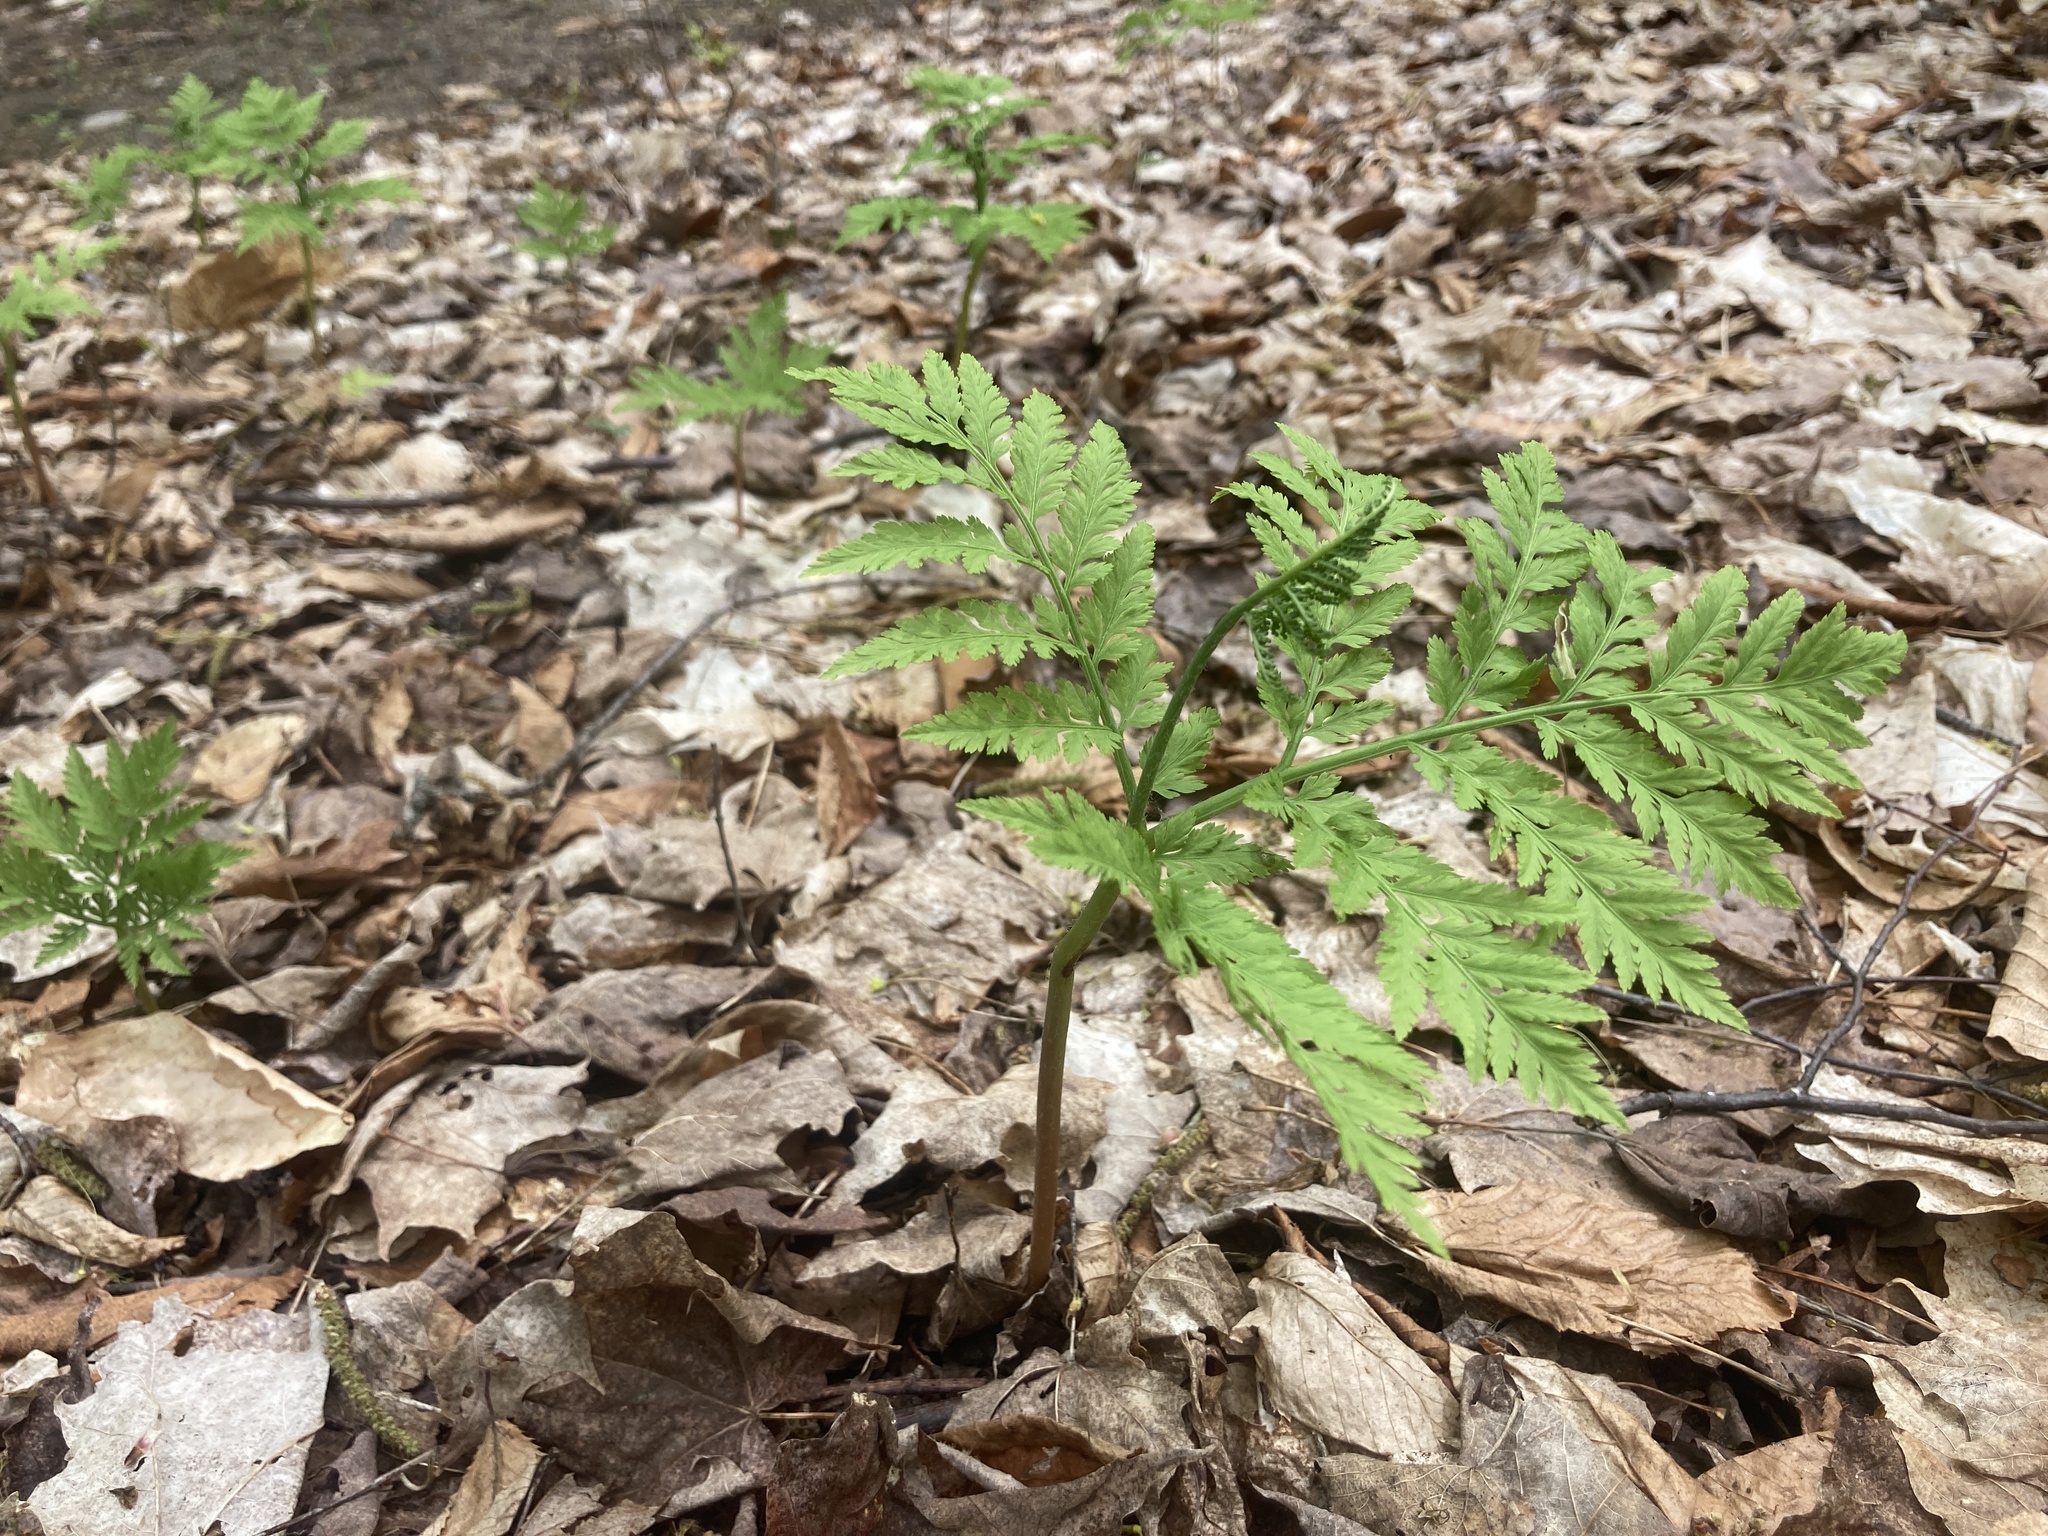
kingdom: Plantae
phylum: Tracheophyta
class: Polypodiopsida
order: Ophioglossales
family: Ophioglossaceae
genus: Botrypus
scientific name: Botrypus virginianus
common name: Common grapefern
